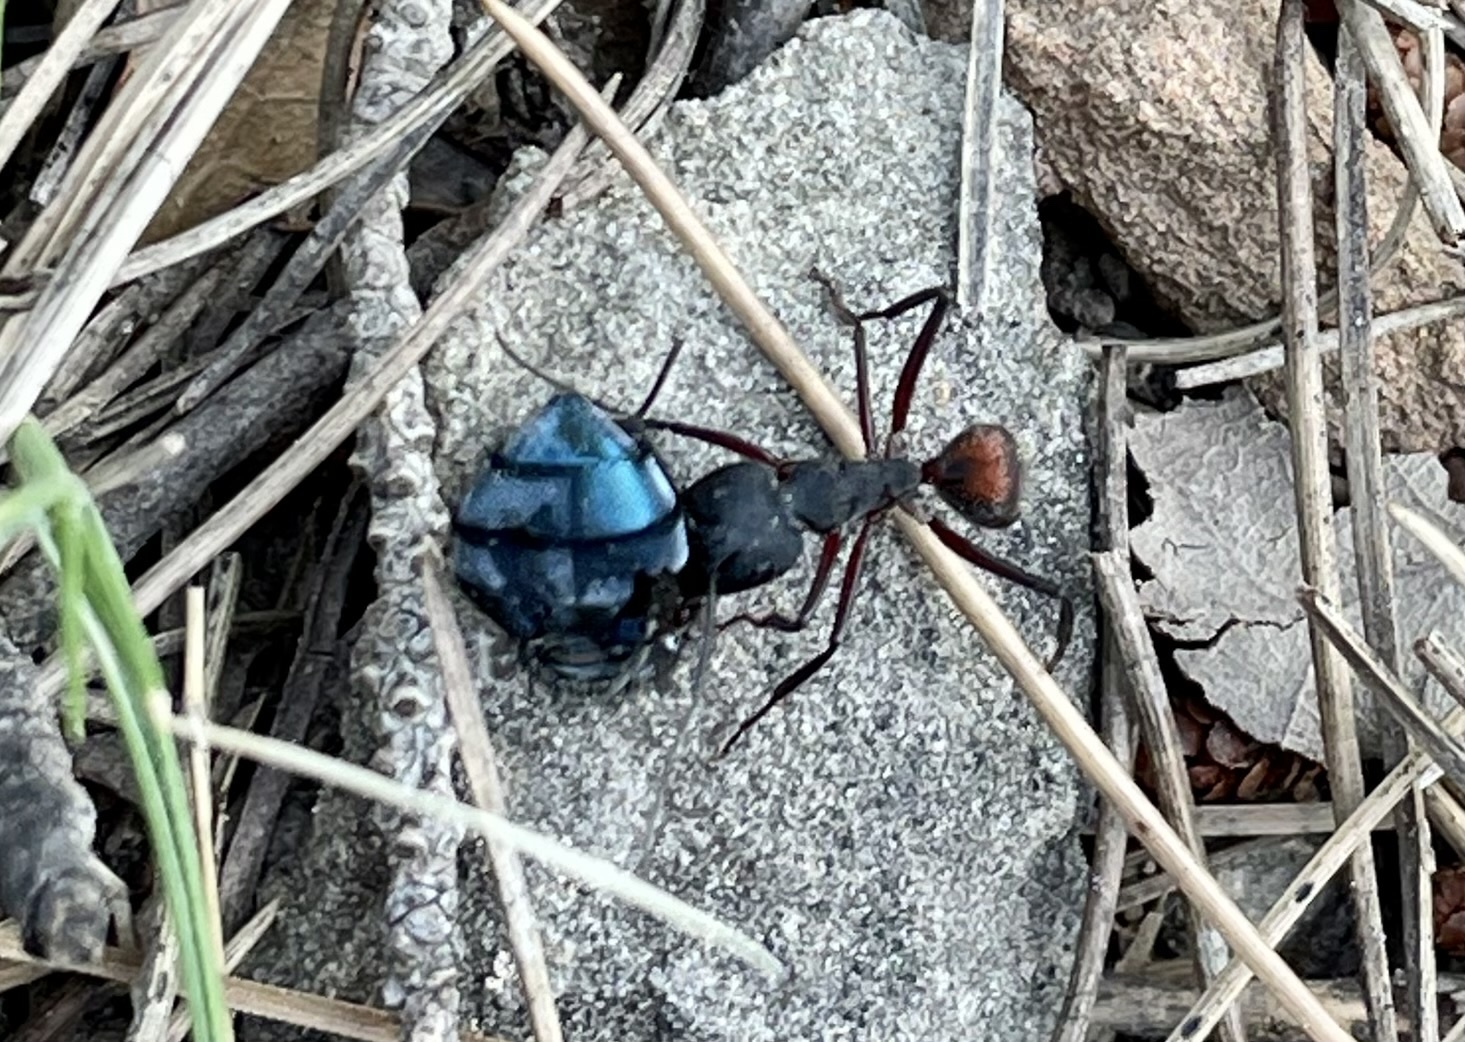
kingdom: Animalia
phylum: Arthropoda
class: Insecta
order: Hymenoptera
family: Formicidae
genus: Camponotus
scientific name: Camponotus cruentatus
